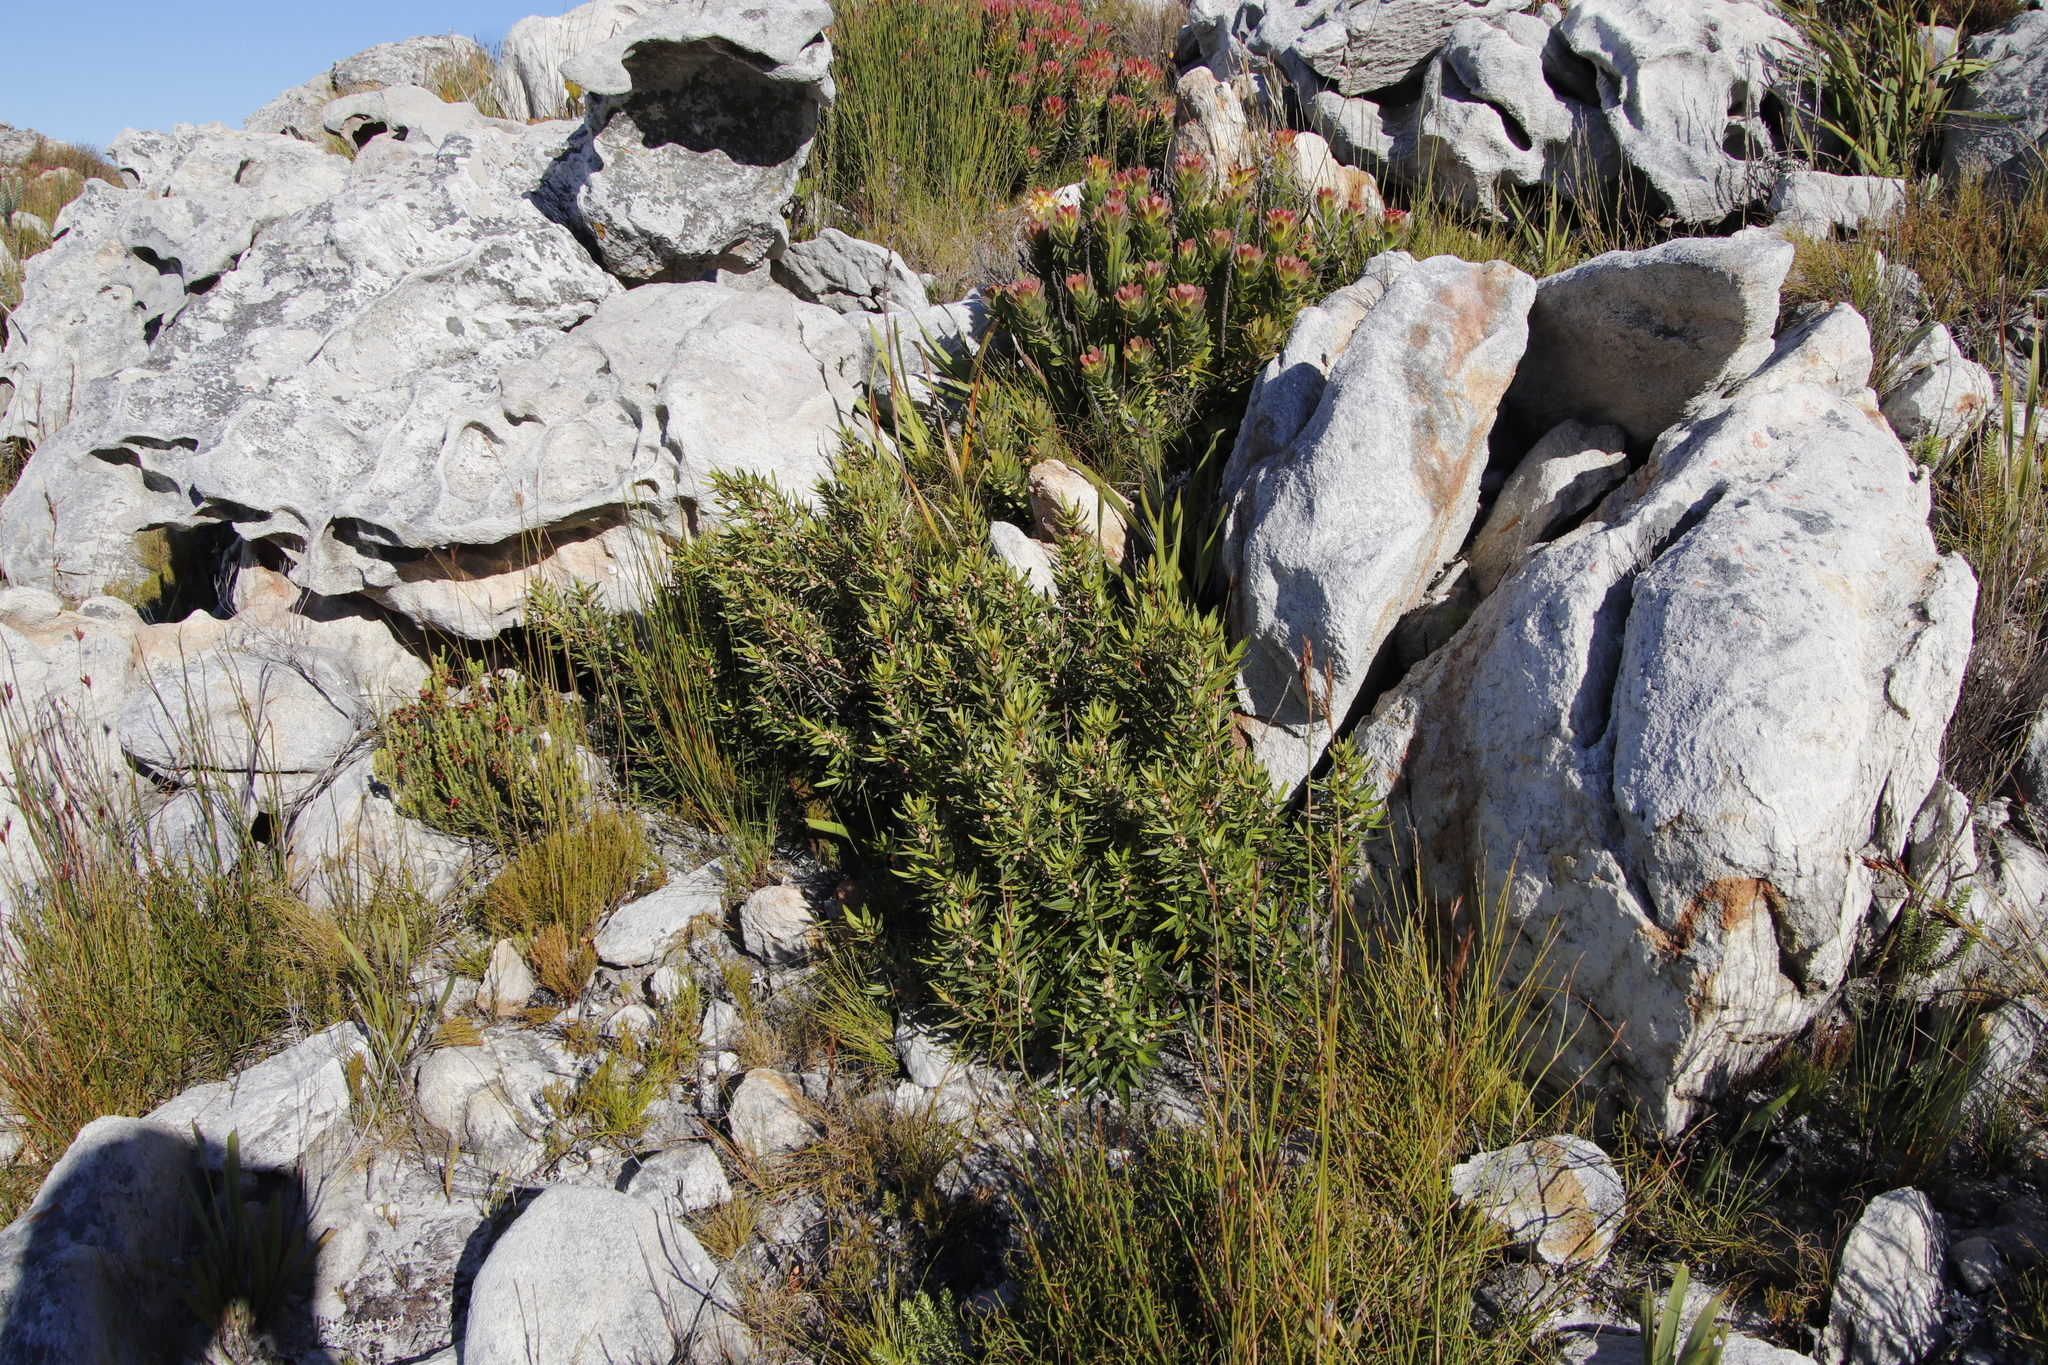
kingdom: Plantae
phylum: Tracheophyta
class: Magnoliopsida
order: Cornales
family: Grubbiaceae
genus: Grubbia
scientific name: Grubbia tomentosa
